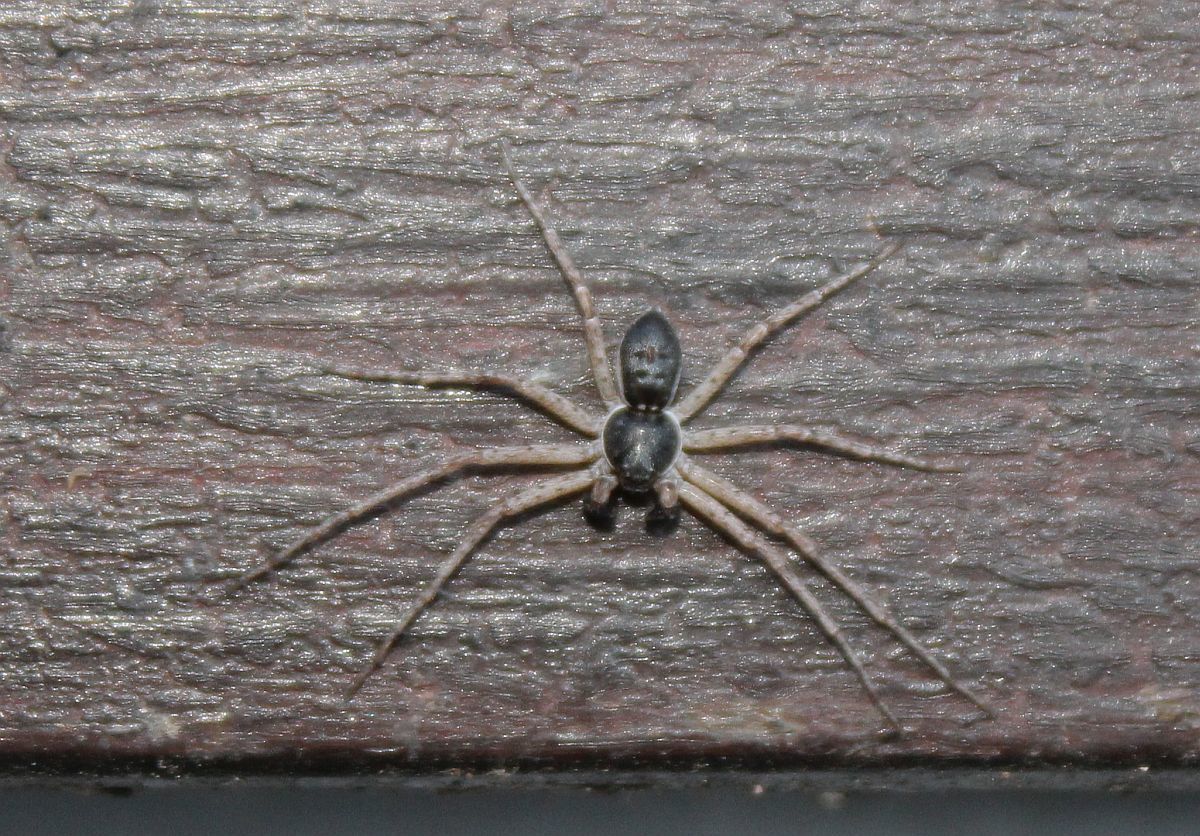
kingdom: Animalia
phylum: Arthropoda
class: Arachnida
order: Araneae
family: Philodromidae
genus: Philodromus
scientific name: Philodromus dispar
